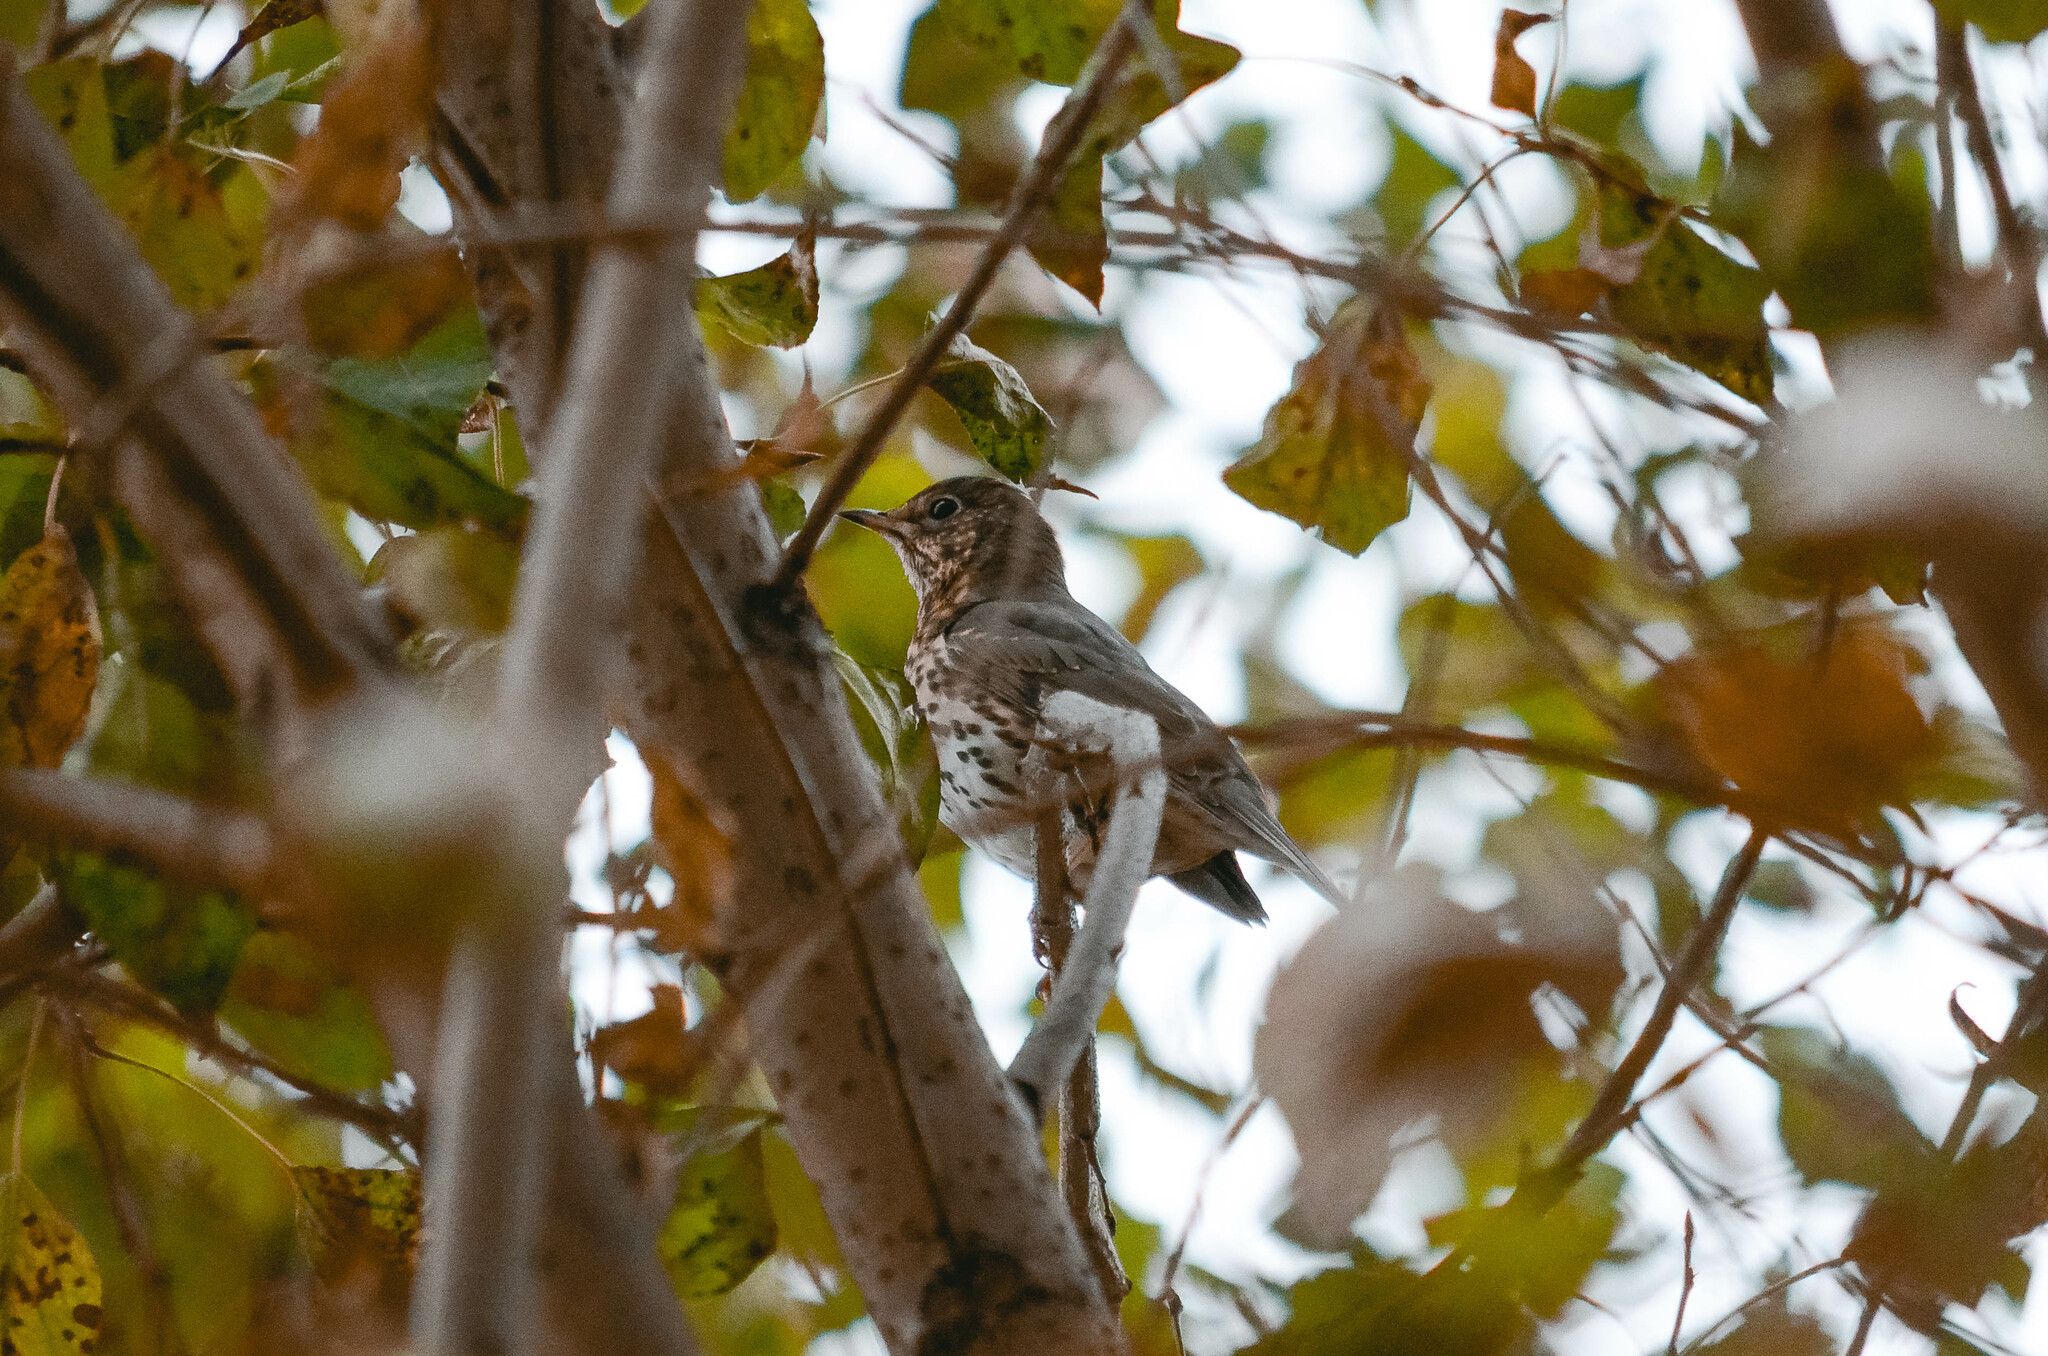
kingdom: Animalia
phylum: Chordata
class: Aves
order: Passeriformes
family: Turdidae
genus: Turdus
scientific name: Turdus philomelos
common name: Song thrush
